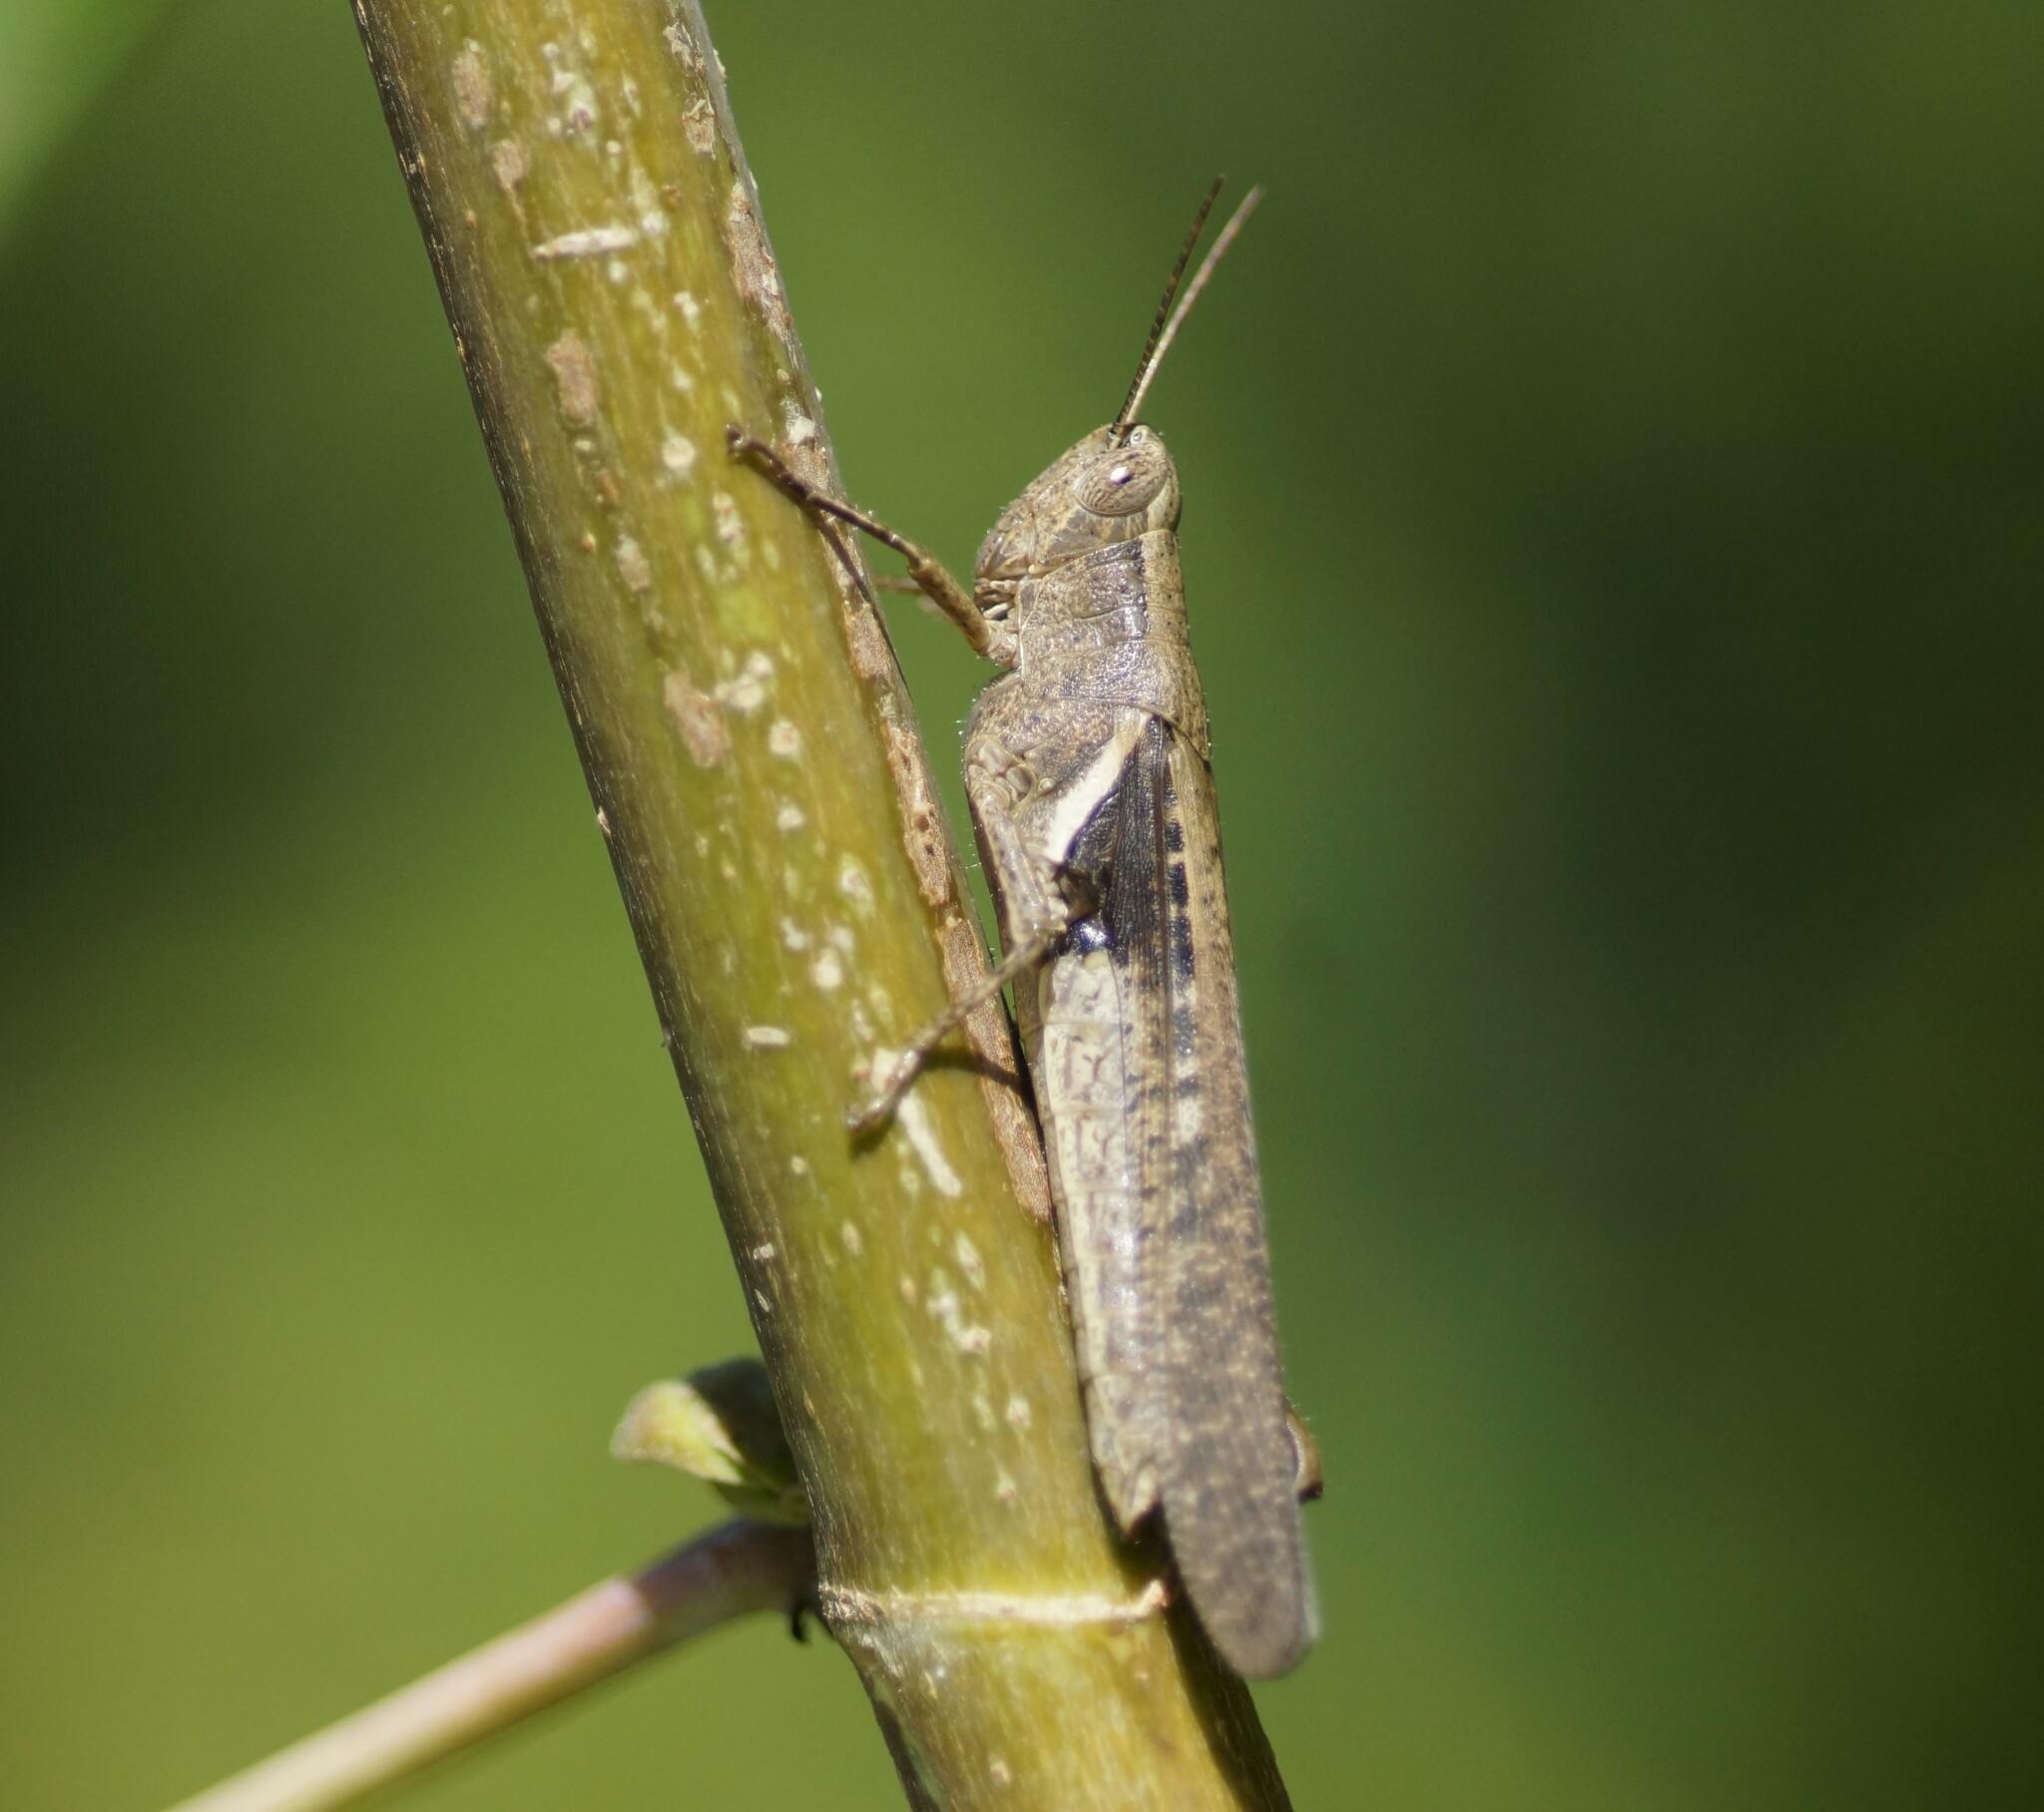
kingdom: Animalia
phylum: Arthropoda
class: Insecta
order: Orthoptera
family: Acrididae
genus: Stenocatantops
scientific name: Stenocatantops angustifrons
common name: Common tropical sharptail
